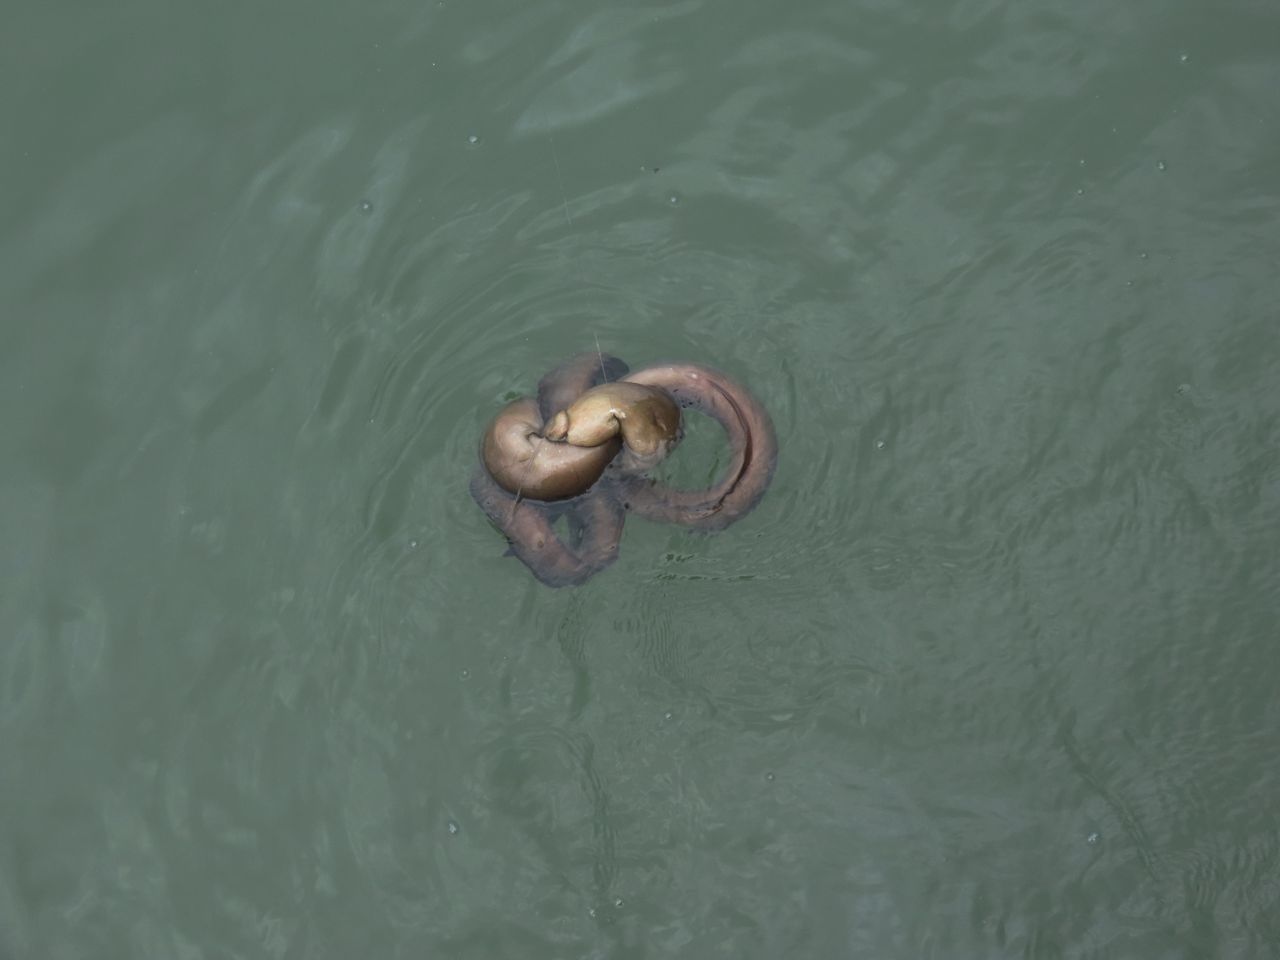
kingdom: Animalia
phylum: Chordata
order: Anguilliformes
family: Muraenidae
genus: Strophidon
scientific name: Strophidon sathete
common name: Giant slender moray
